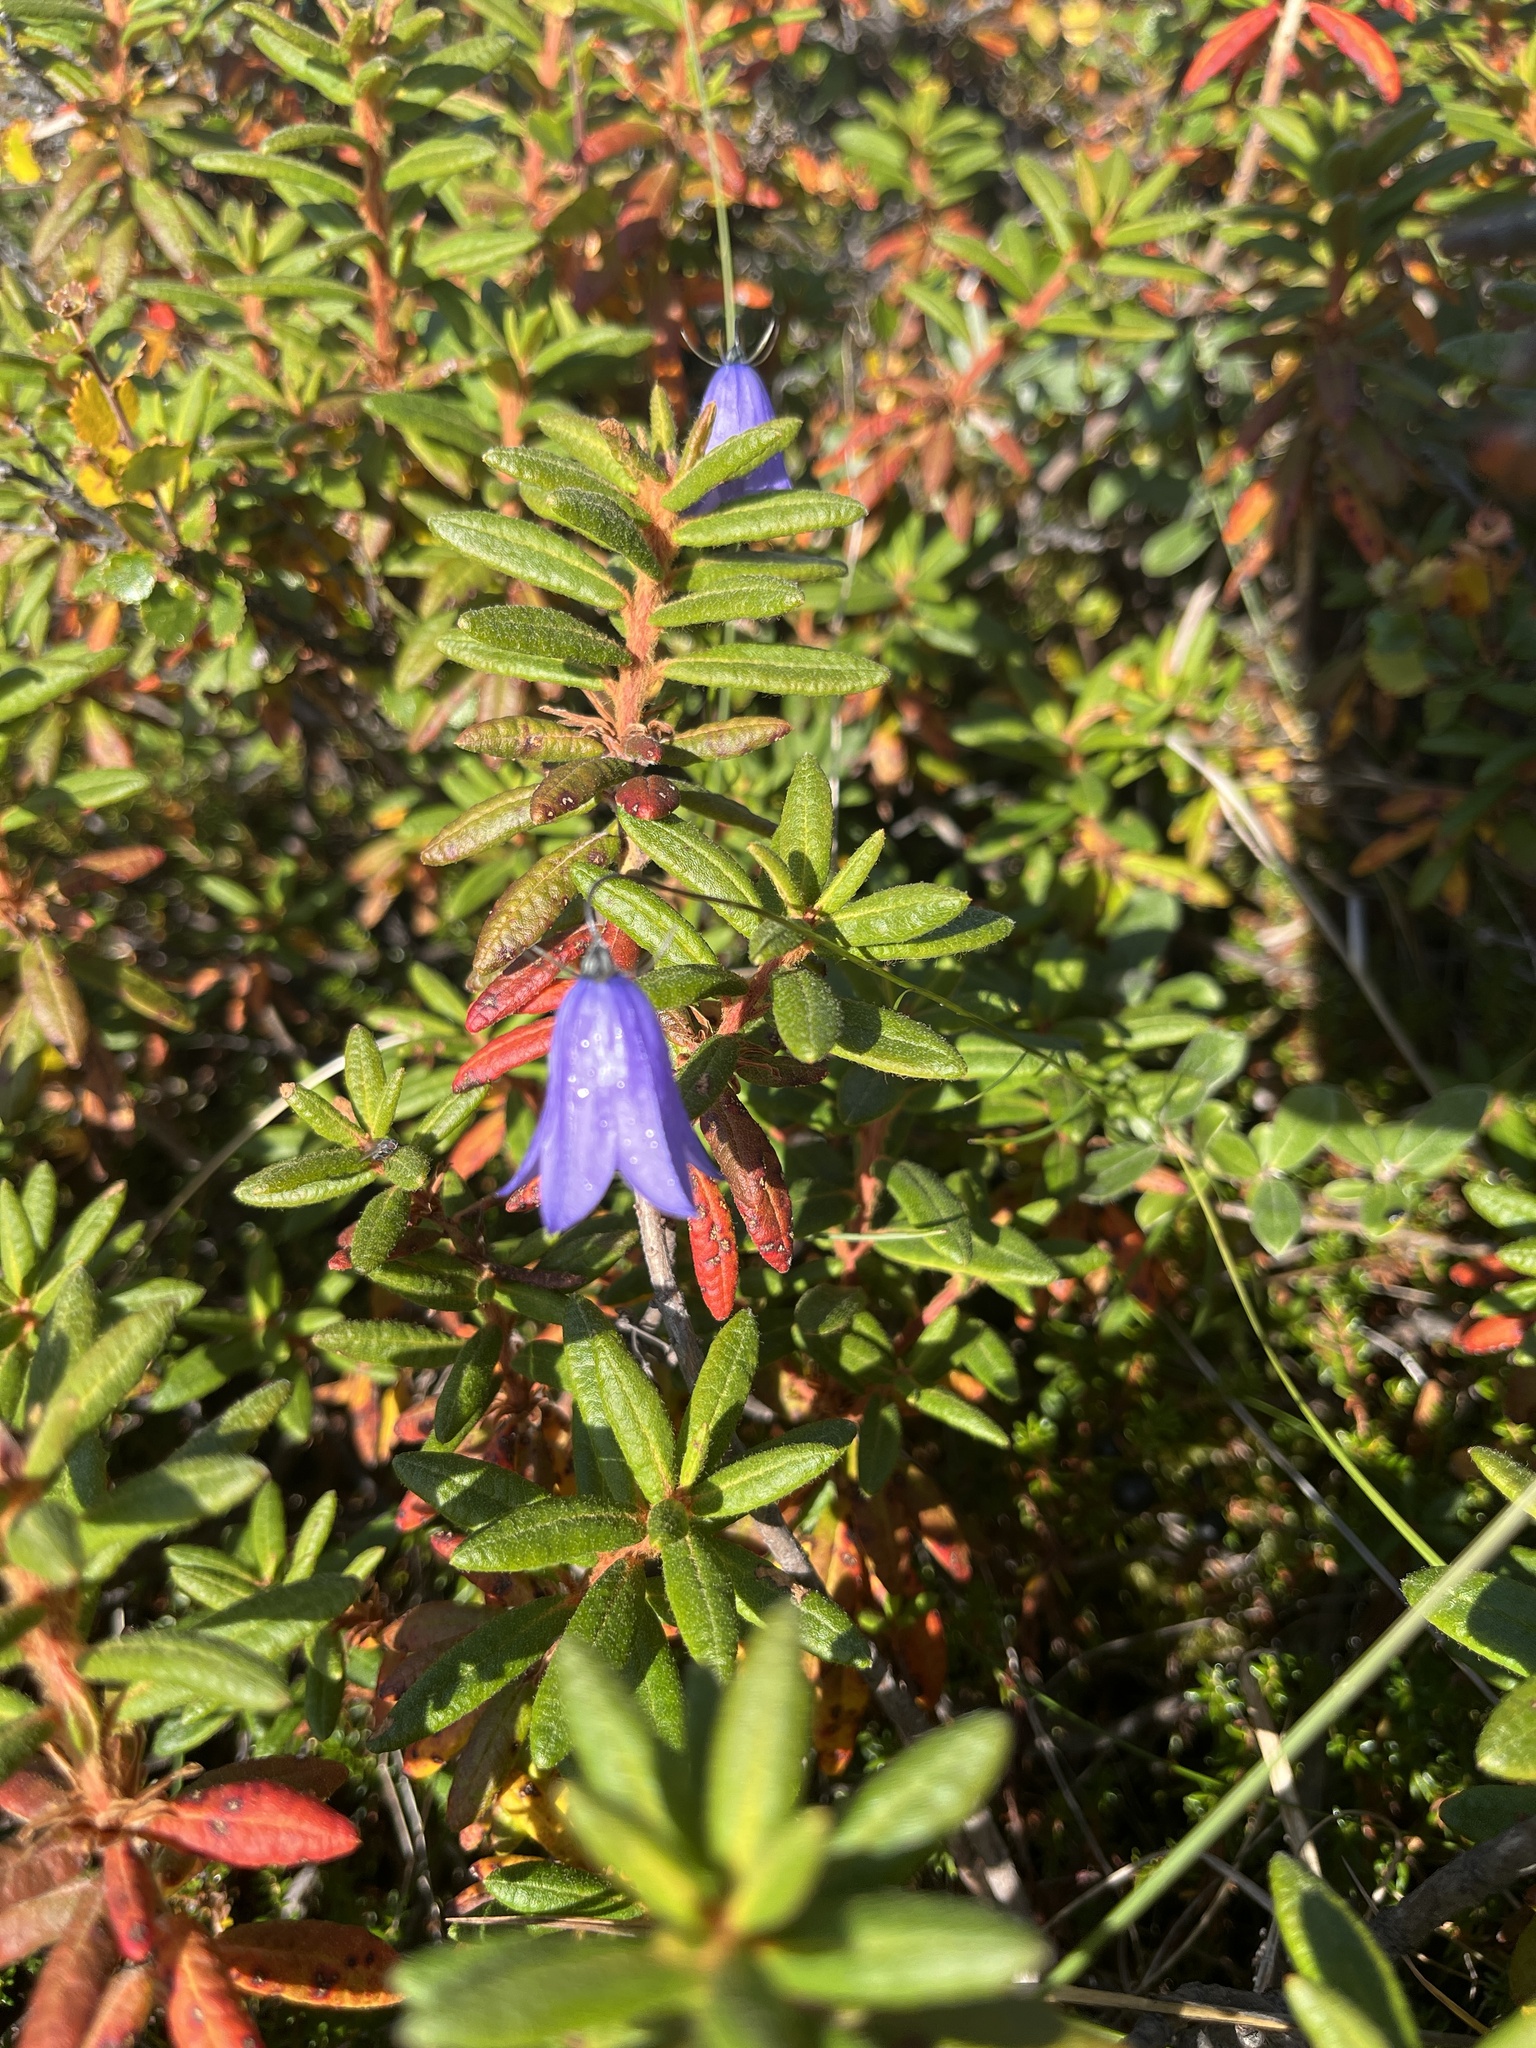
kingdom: Plantae
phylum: Tracheophyta
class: Magnoliopsida
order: Asterales
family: Campanulaceae
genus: Campanula
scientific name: Campanula giesekiana
